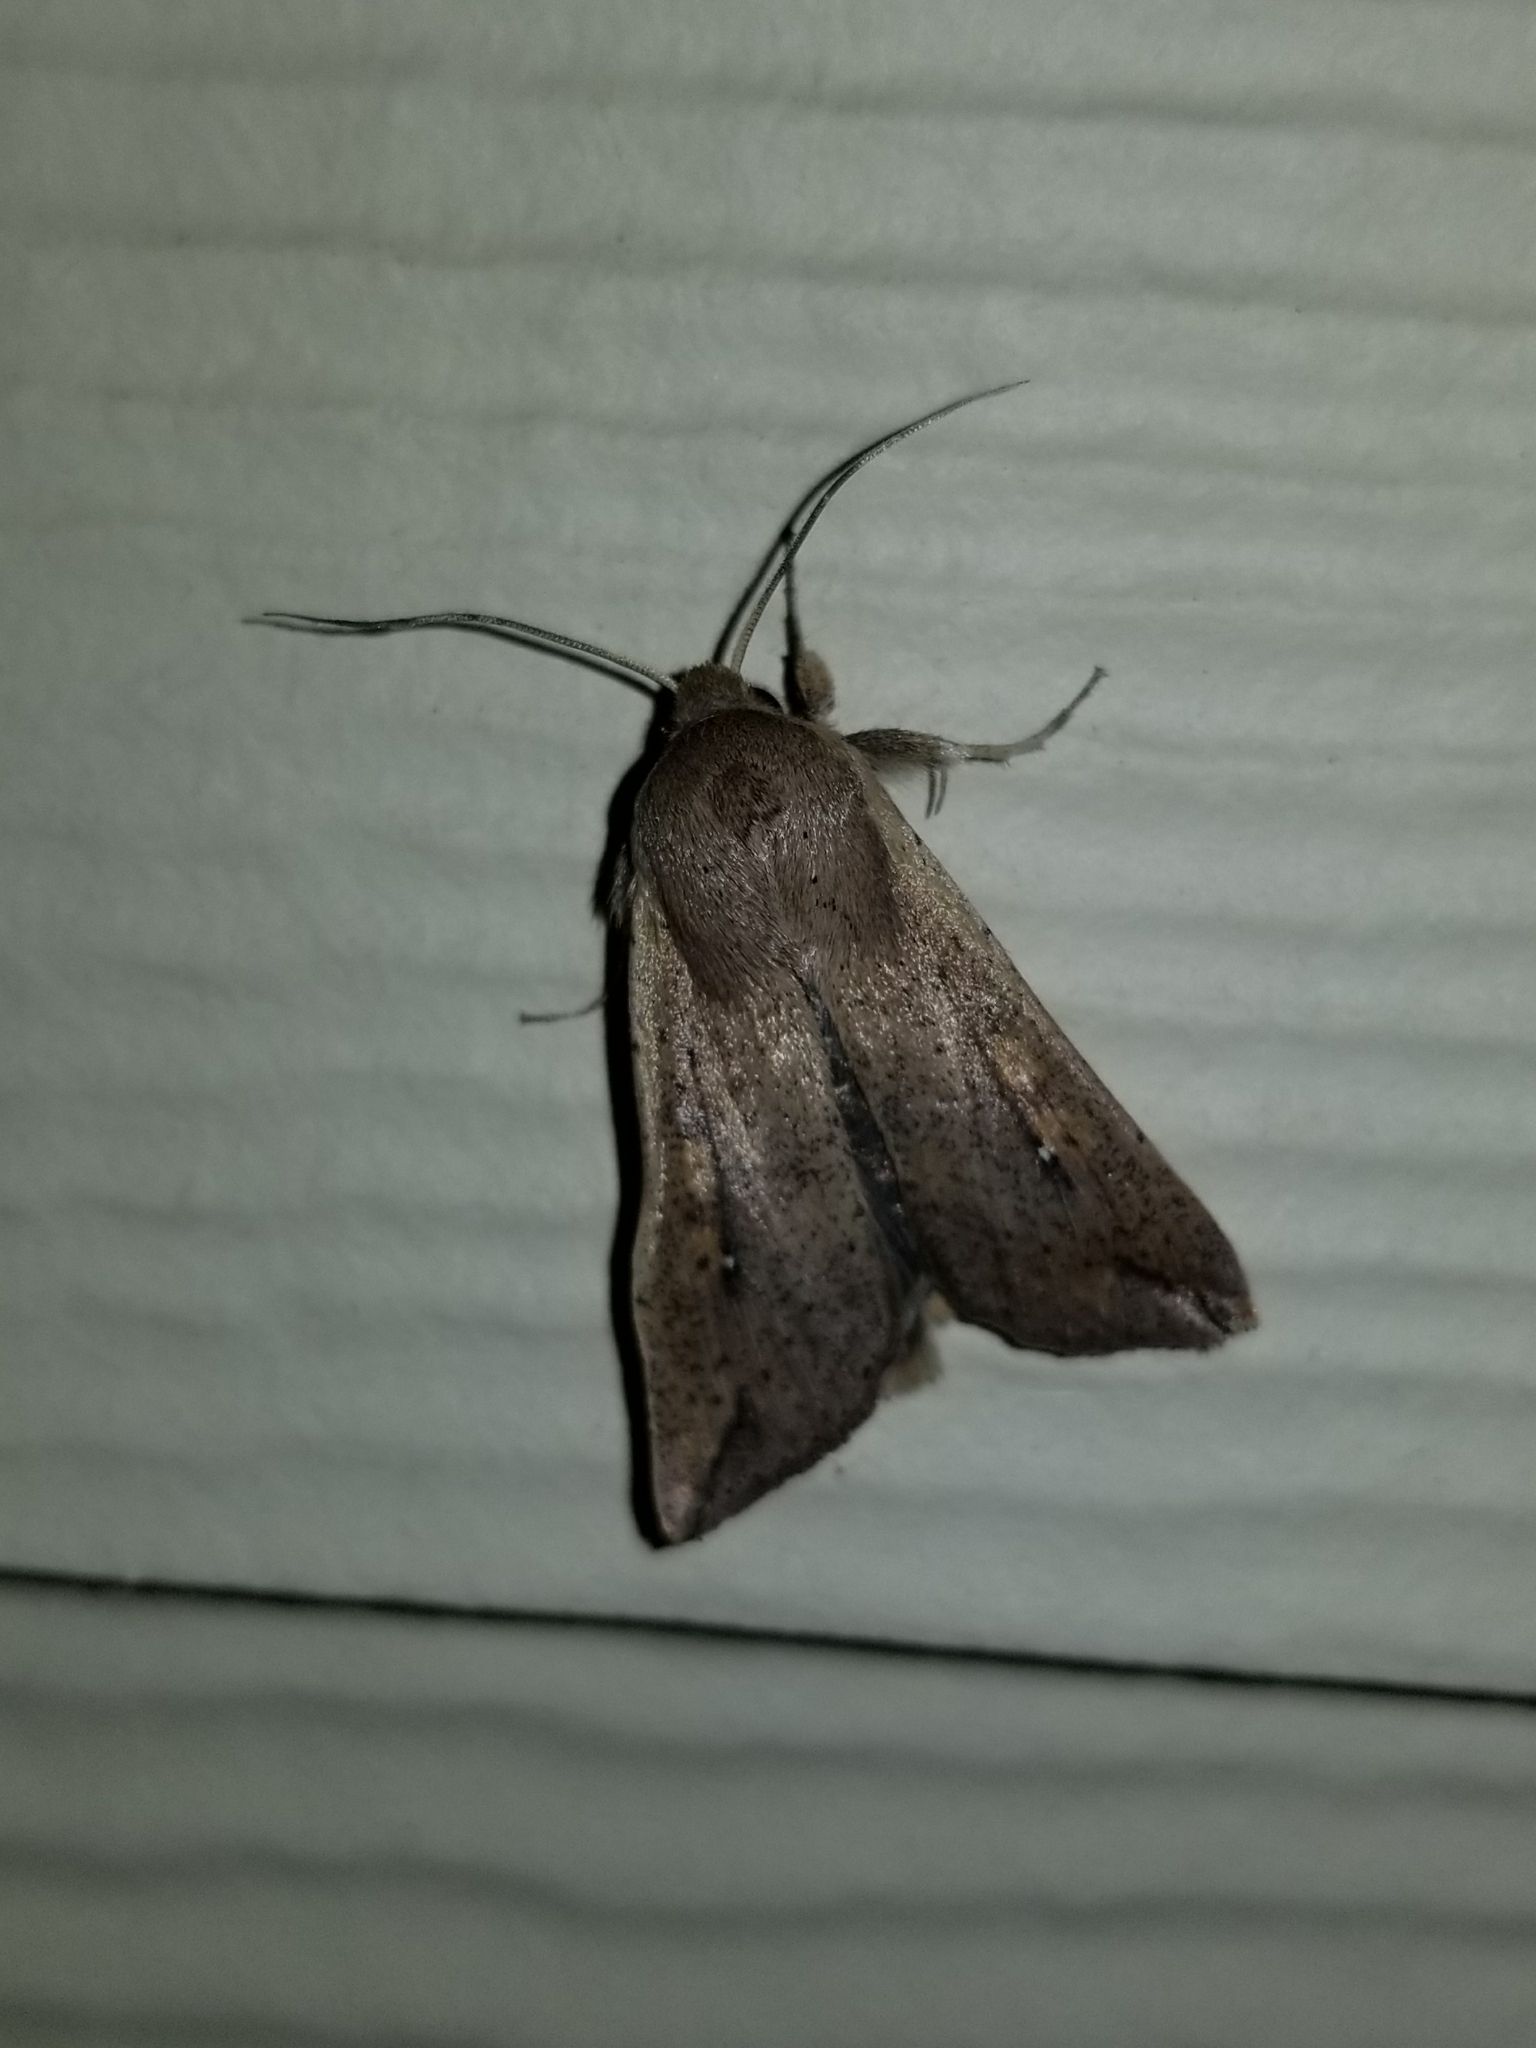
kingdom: Animalia
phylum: Arthropoda
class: Insecta
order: Lepidoptera
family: Noctuidae
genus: Mythimna
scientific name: Mythimna unipuncta
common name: White-speck
